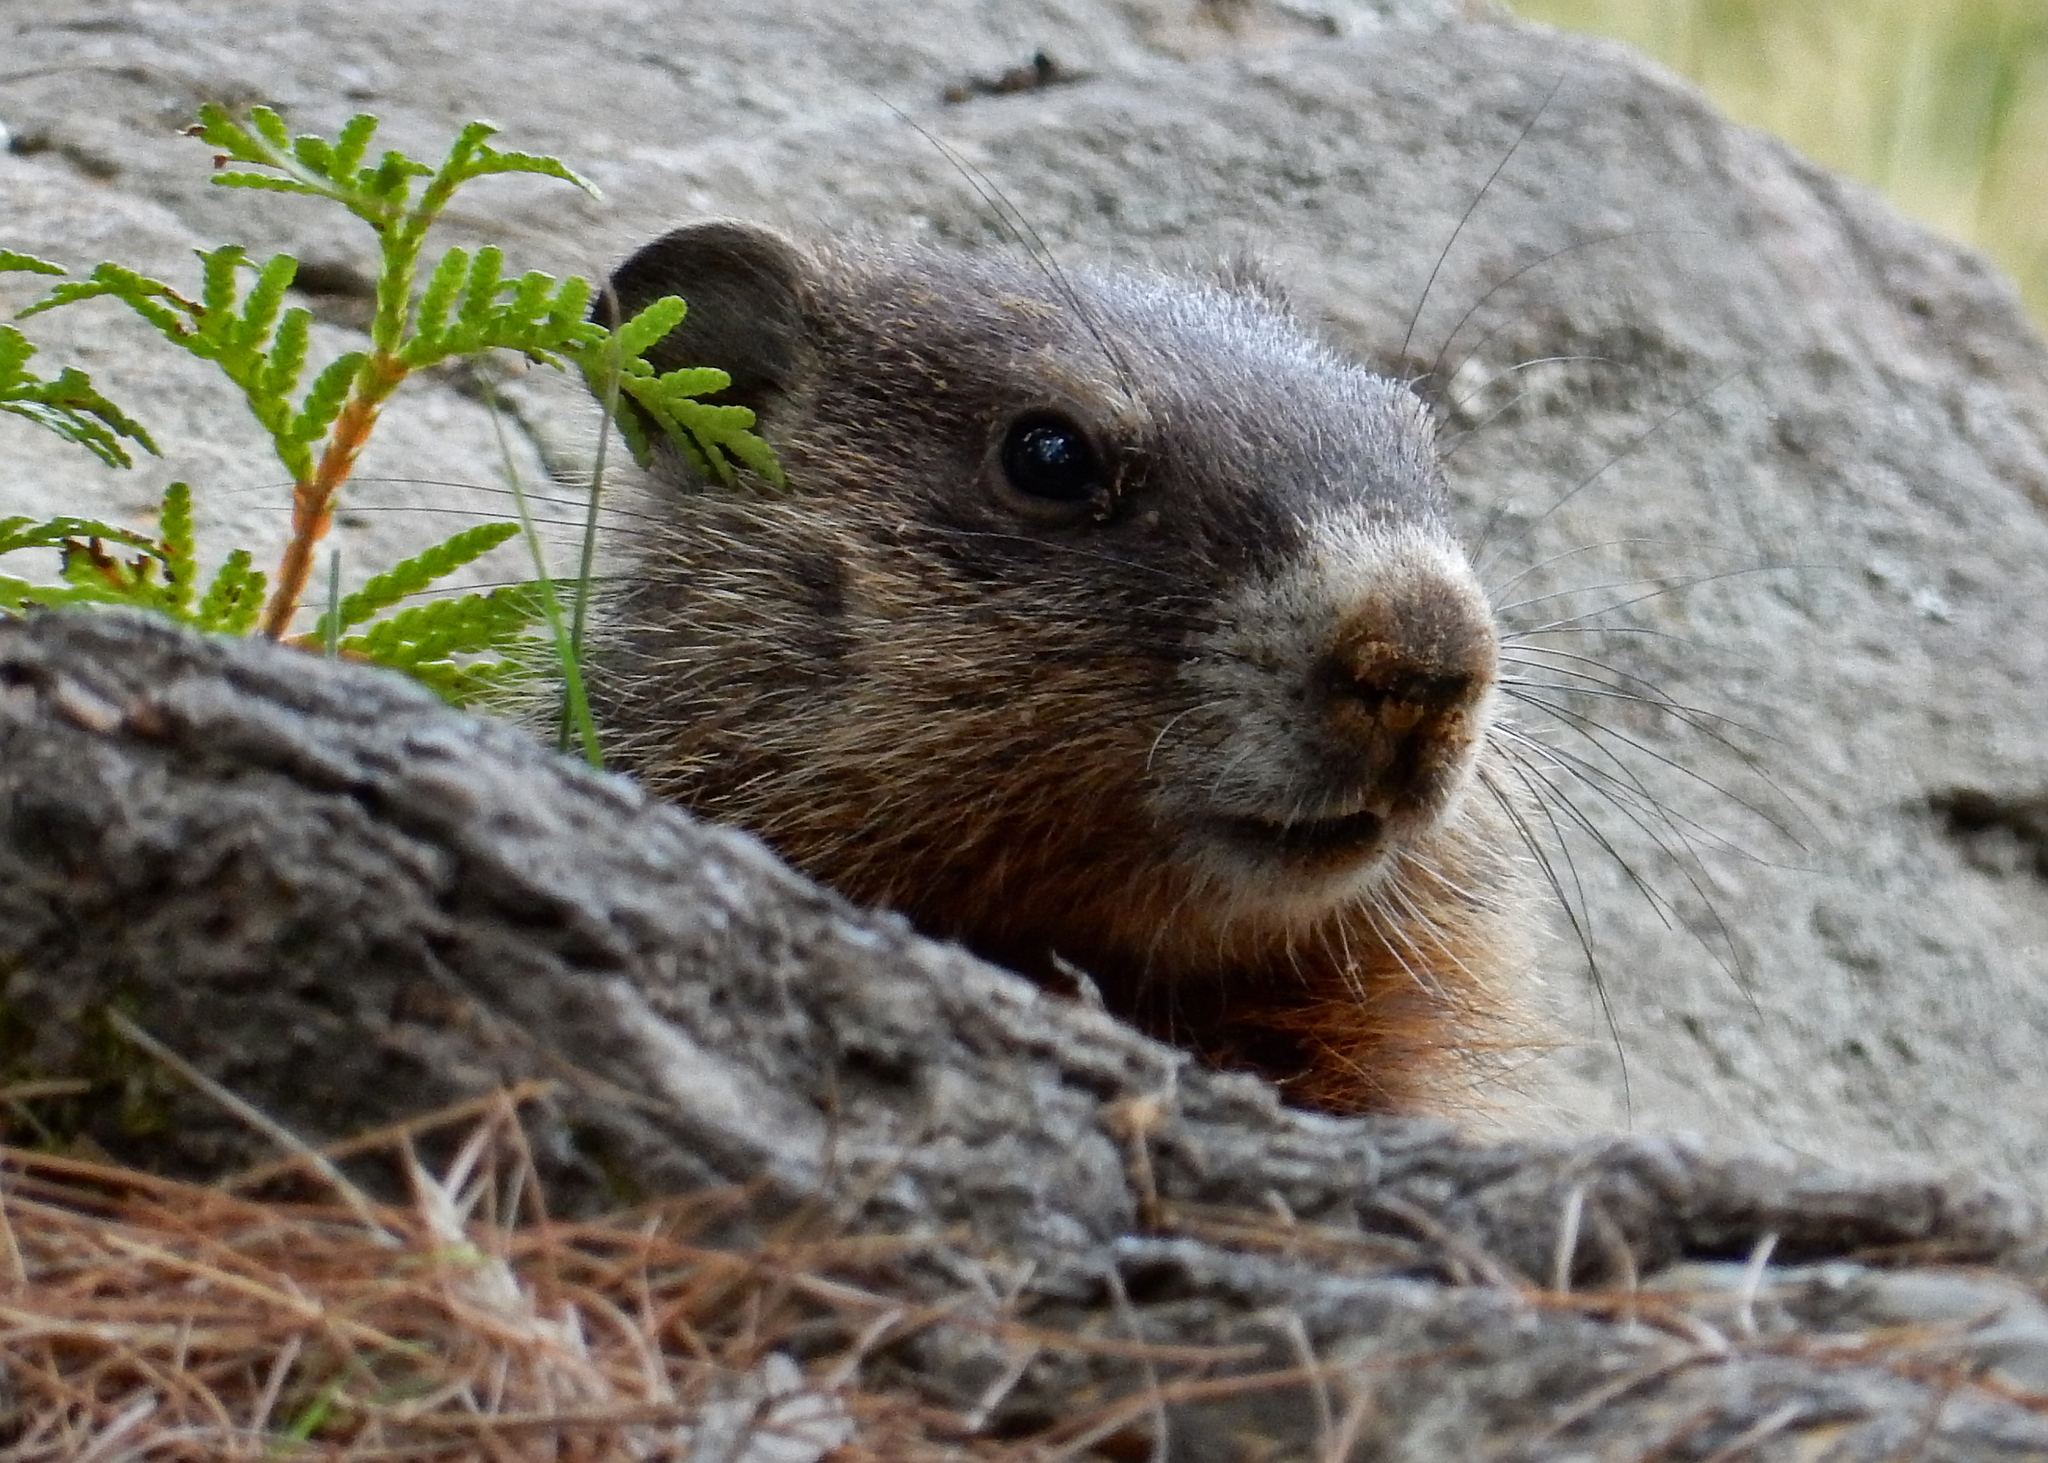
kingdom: Animalia
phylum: Chordata
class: Mammalia
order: Rodentia
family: Sciuridae
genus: Marmota
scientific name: Marmota monax
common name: Groundhog
